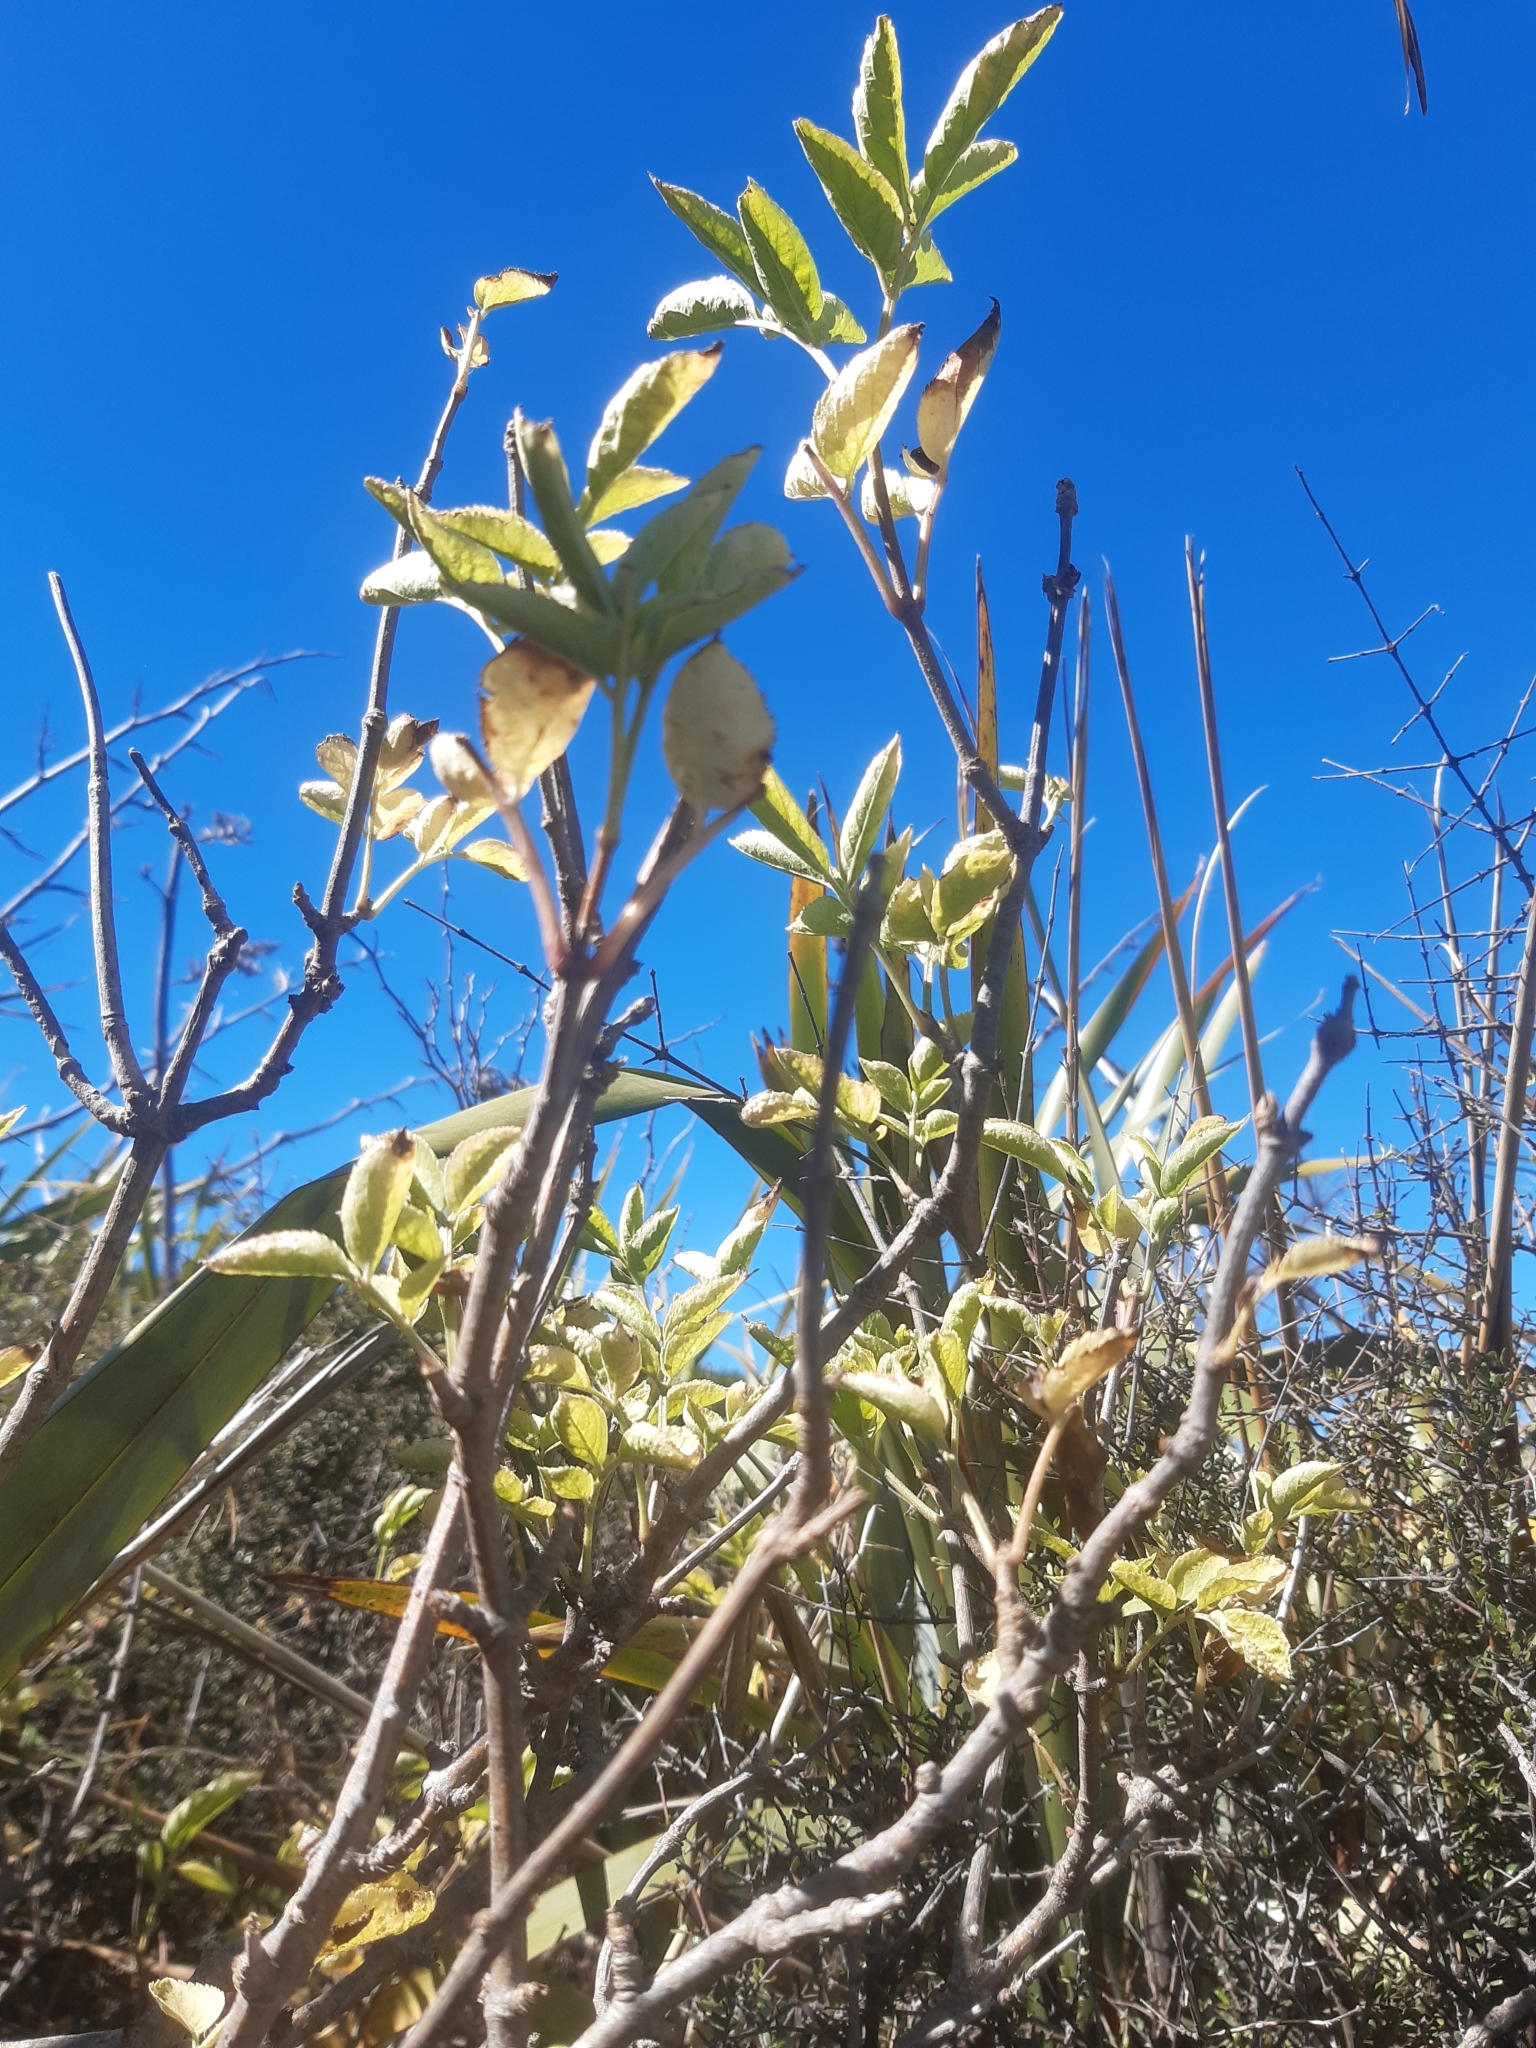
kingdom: Plantae
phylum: Tracheophyta
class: Magnoliopsida
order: Dipsacales
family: Viburnaceae
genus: Sambucus
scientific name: Sambucus nigra
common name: Elder
